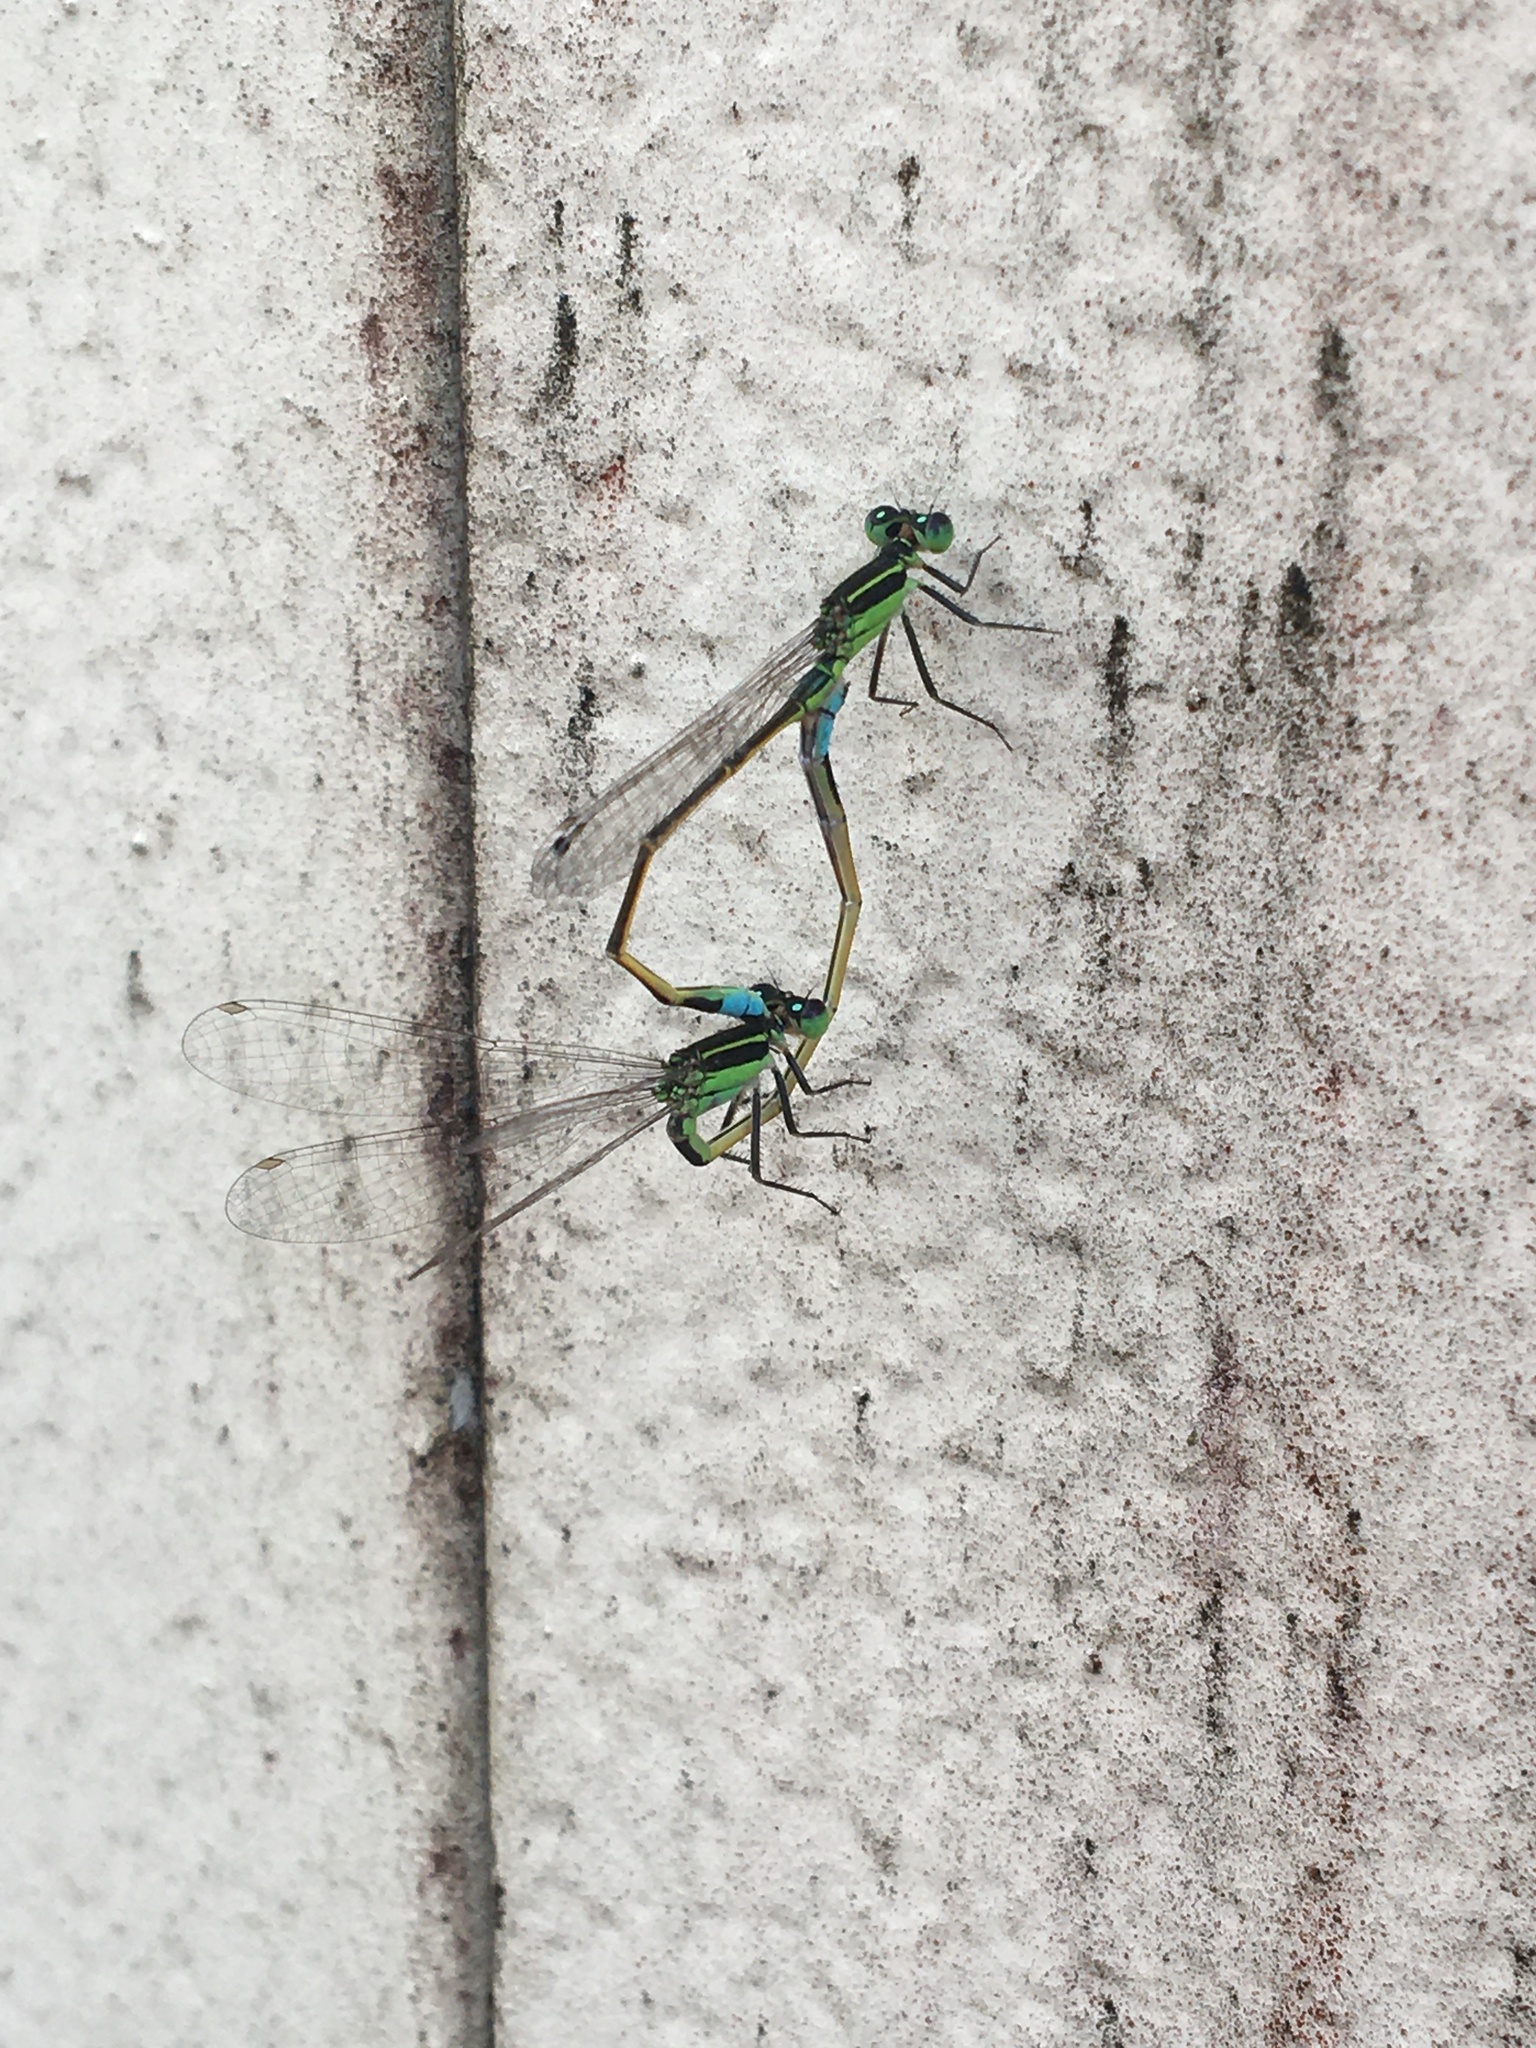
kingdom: Animalia
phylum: Arthropoda
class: Insecta
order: Odonata
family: Coenagrionidae
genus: Ischnura
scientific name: Ischnura ramburii
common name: Rambur's forktail
